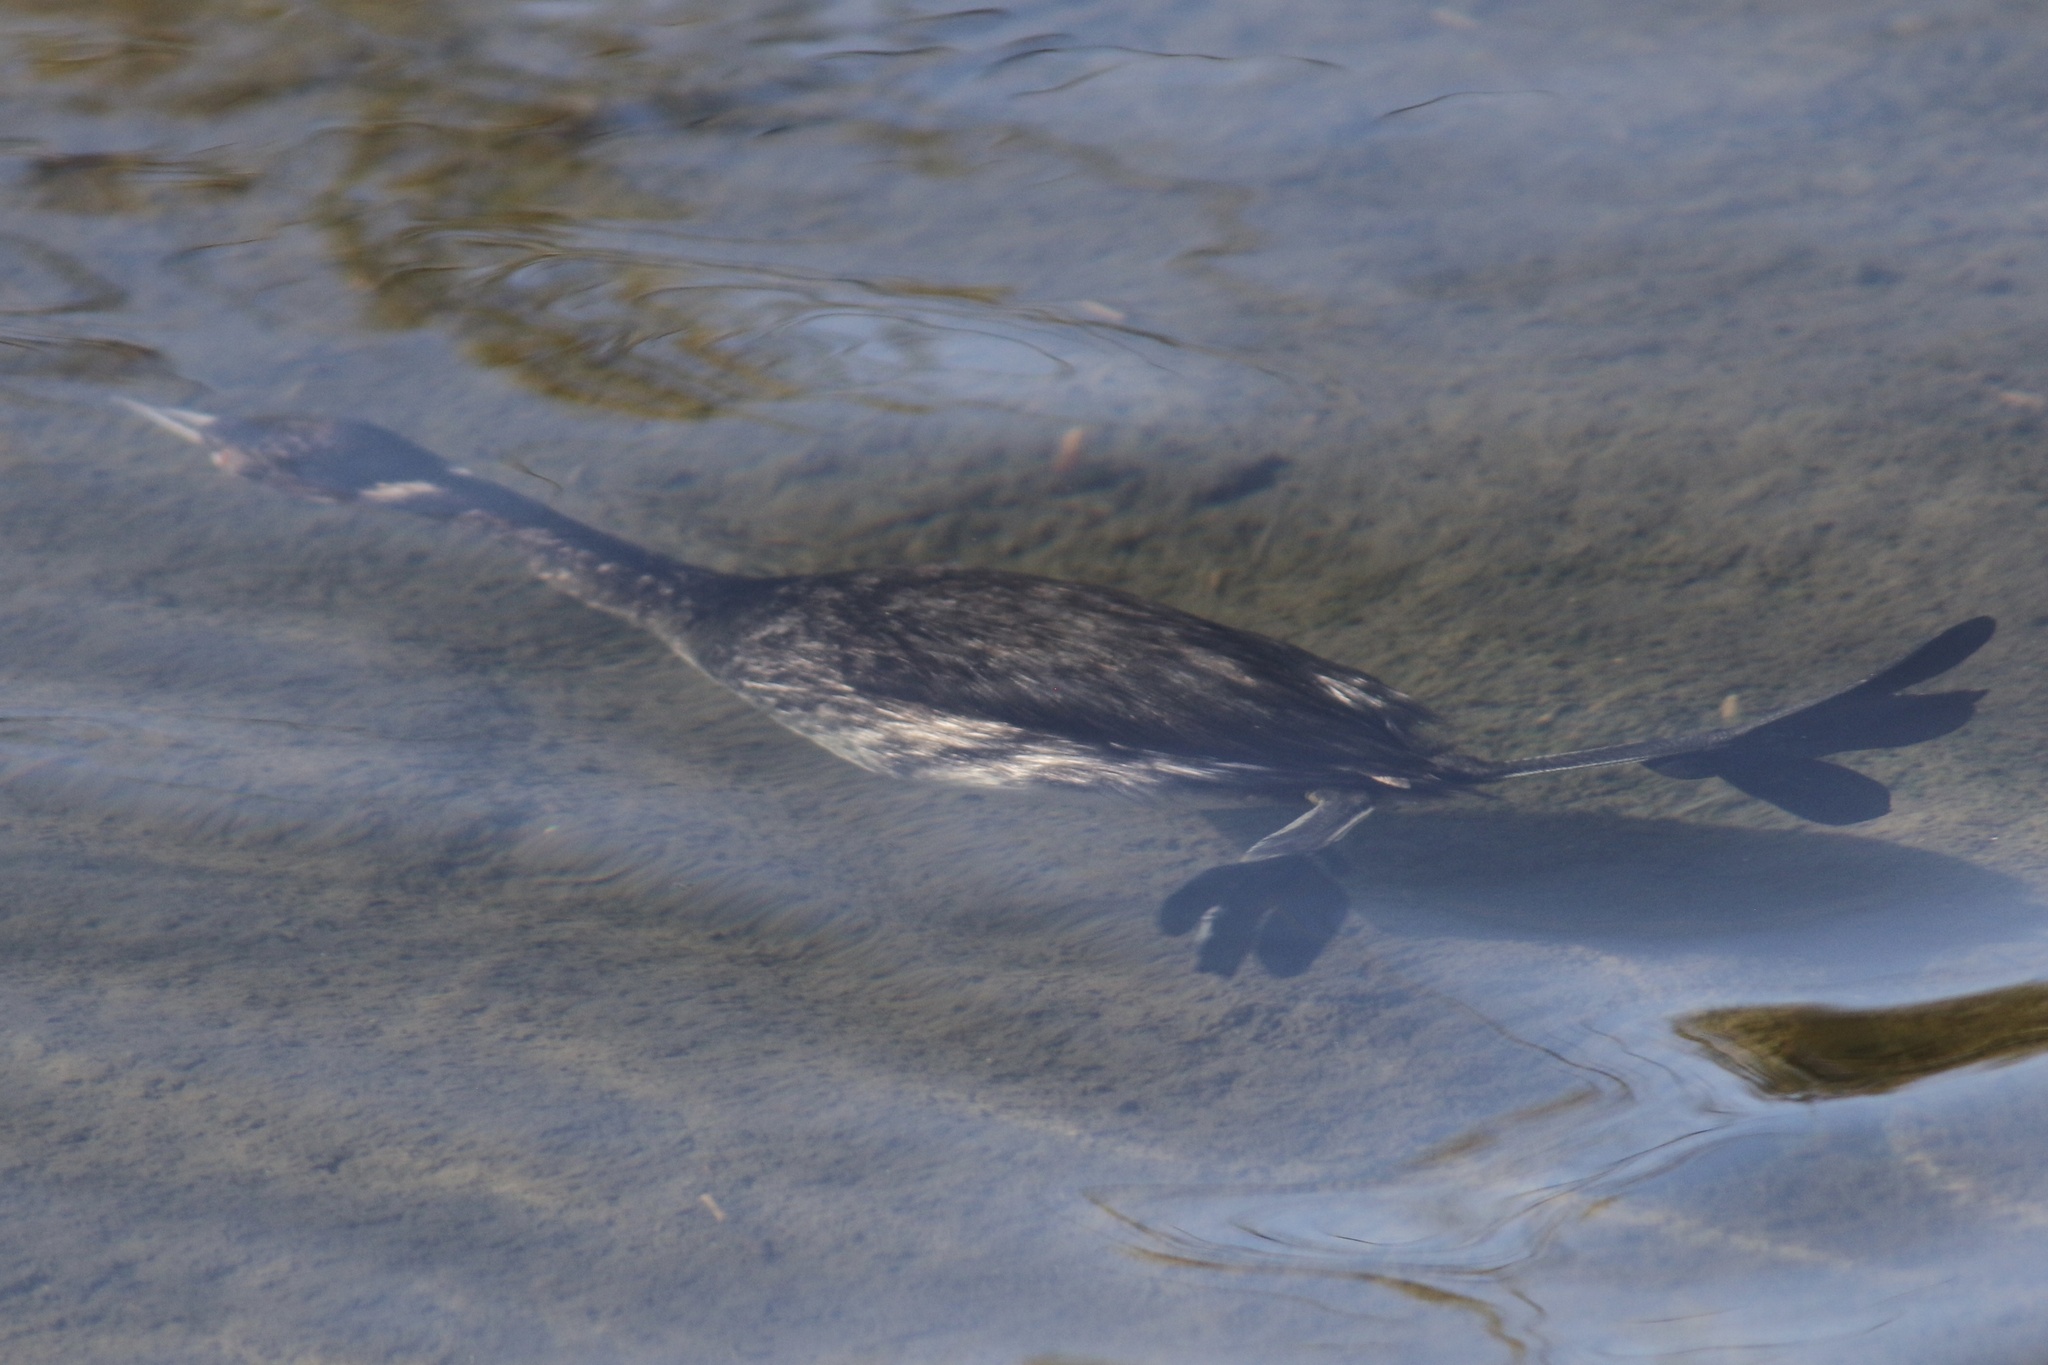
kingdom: Animalia
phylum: Chordata
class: Aves
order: Podicipediformes
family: Podicipedidae
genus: Podiceps
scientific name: Podiceps nigricollis
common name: Black-necked grebe
